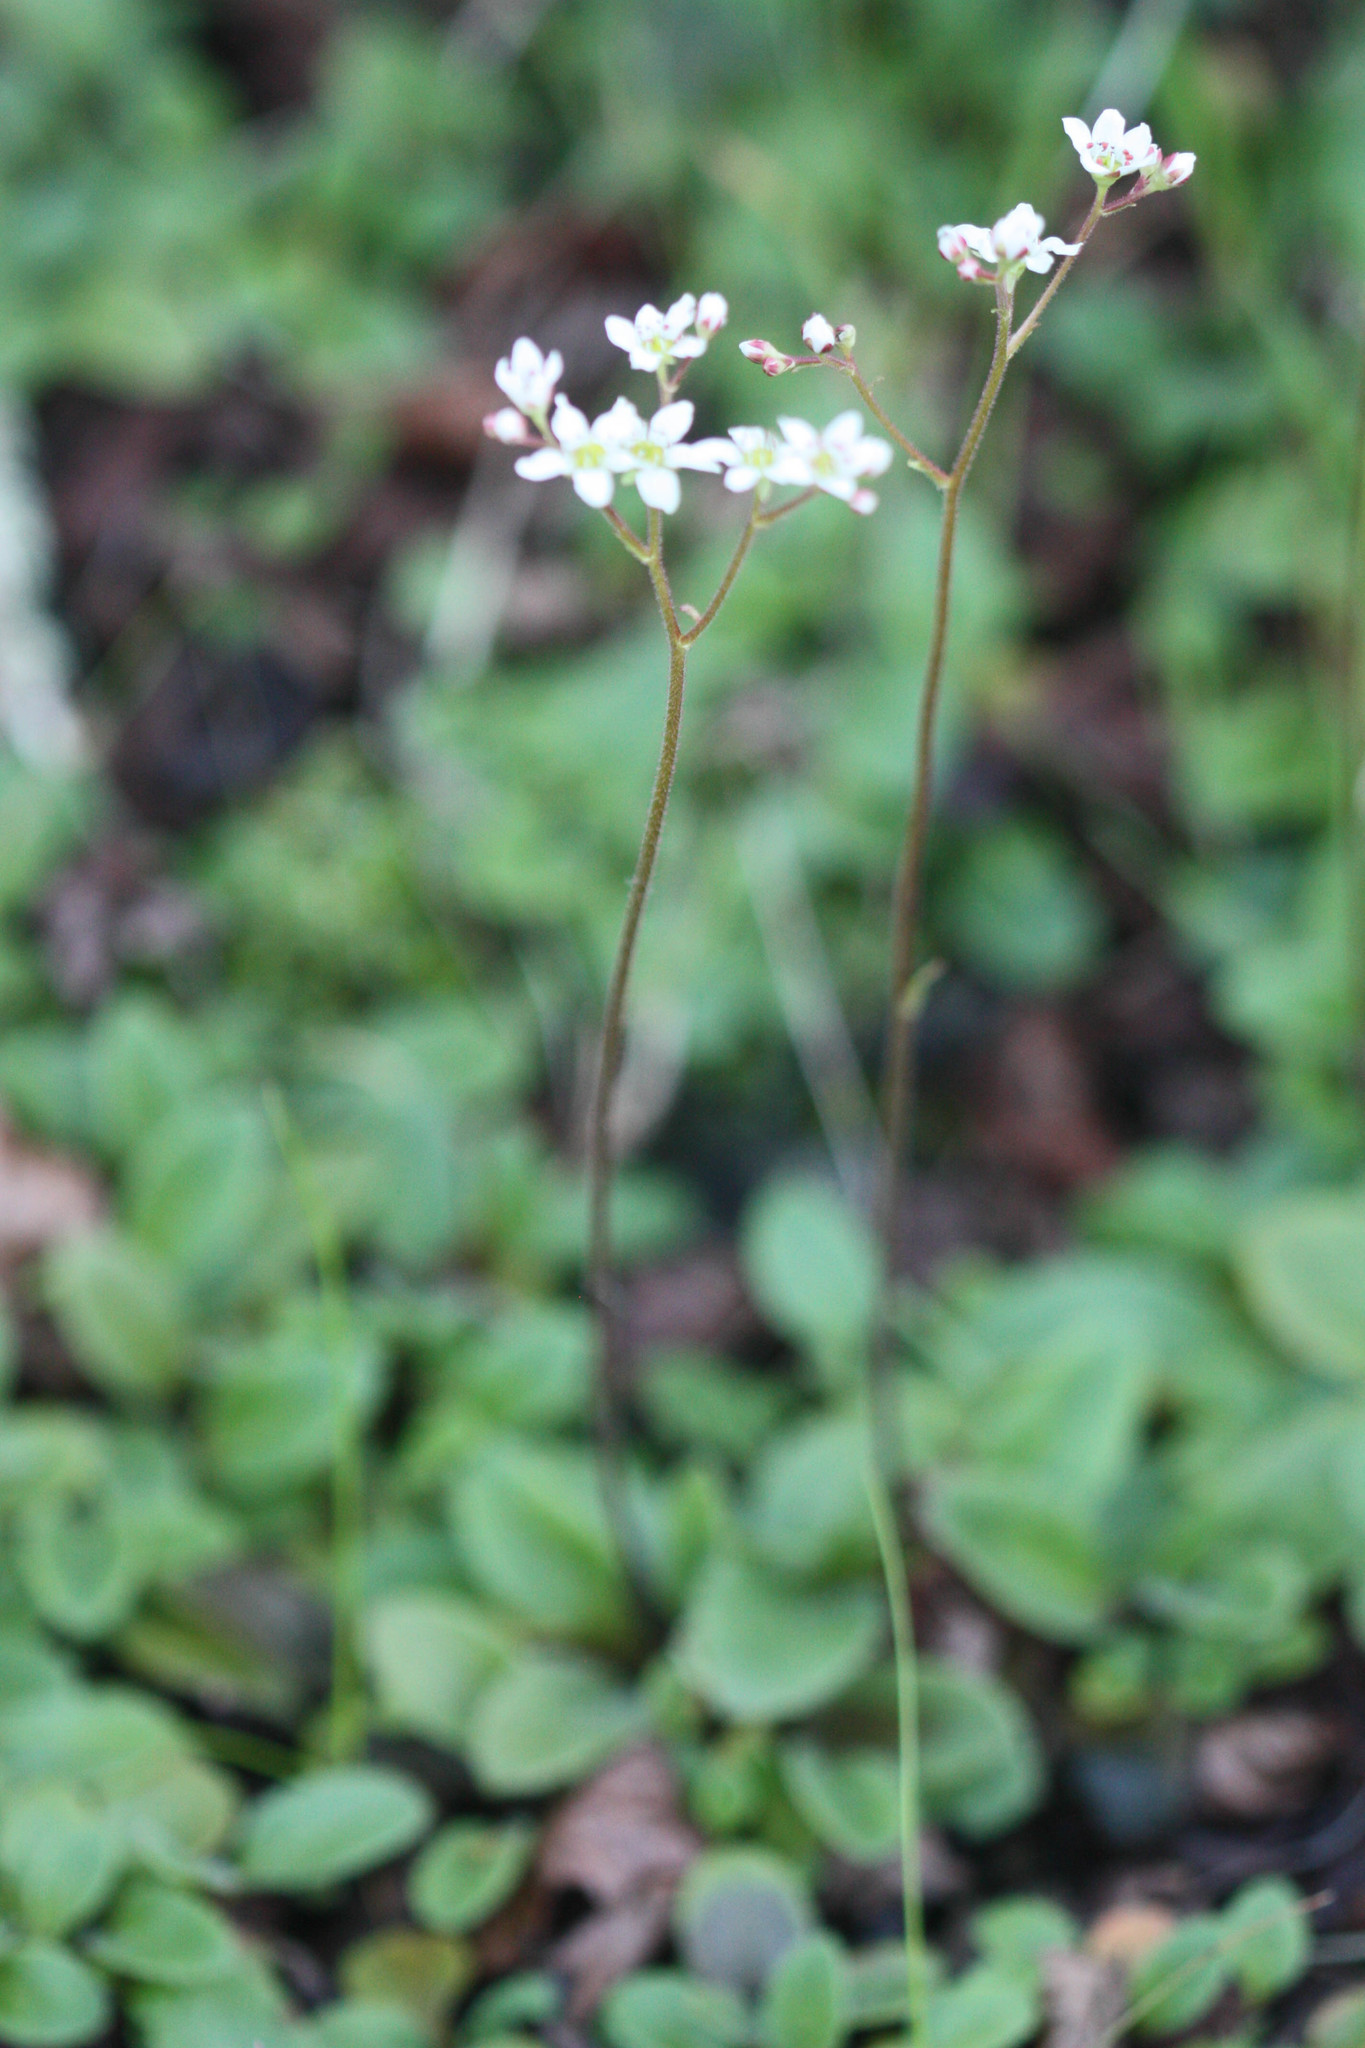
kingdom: Plantae
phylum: Tracheophyta
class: Magnoliopsida
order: Saxifragales
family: Saxifragaceae
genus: Micranthes
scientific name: Micranthes californica
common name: California saxifrage
